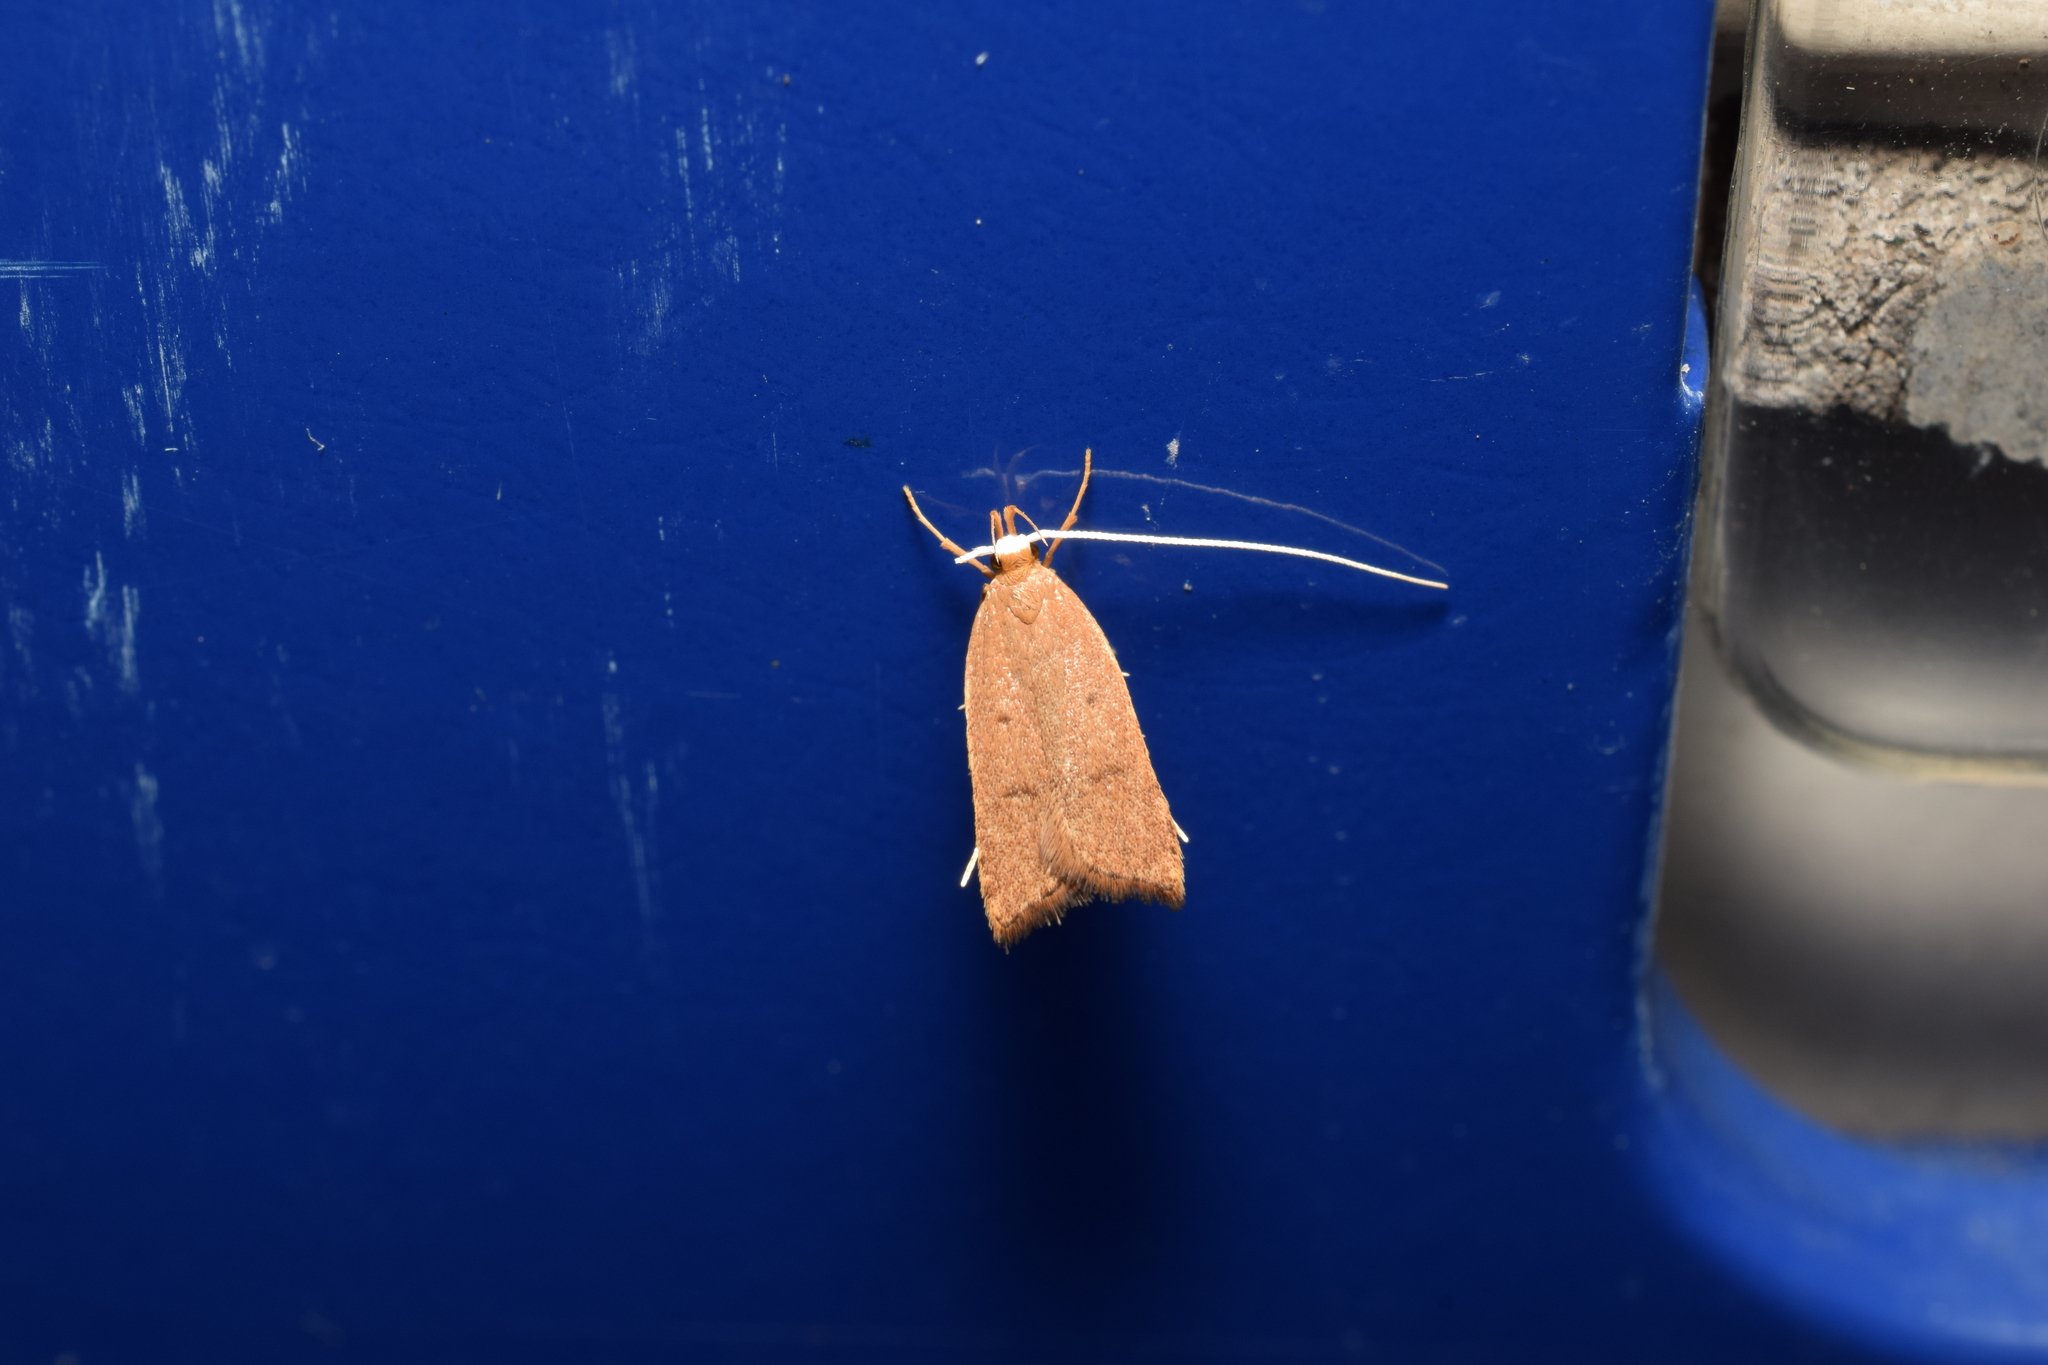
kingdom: Animalia
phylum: Arthropoda
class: Insecta
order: Lepidoptera
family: Lecithoceridae
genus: Lecitholaxa
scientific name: Lecitholaxa thiodora
